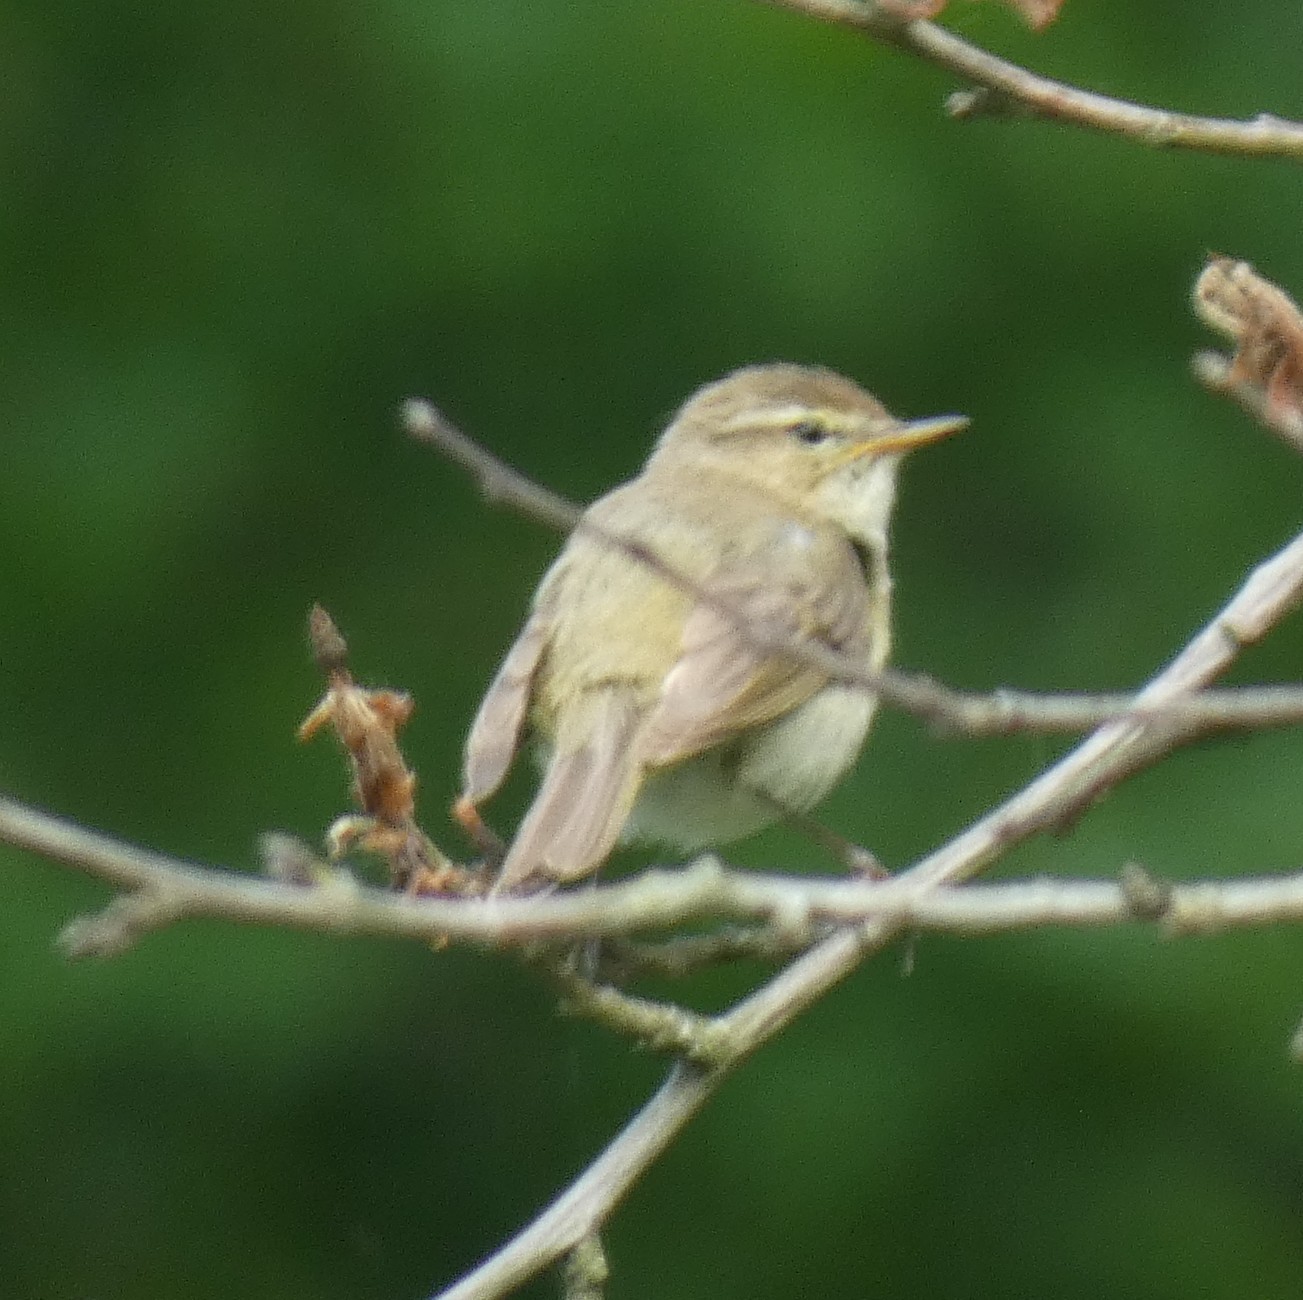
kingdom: Animalia
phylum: Chordata
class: Aves
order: Passeriformes
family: Phylloscopidae
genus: Phylloscopus
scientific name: Phylloscopus collybita
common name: Common chiffchaff
